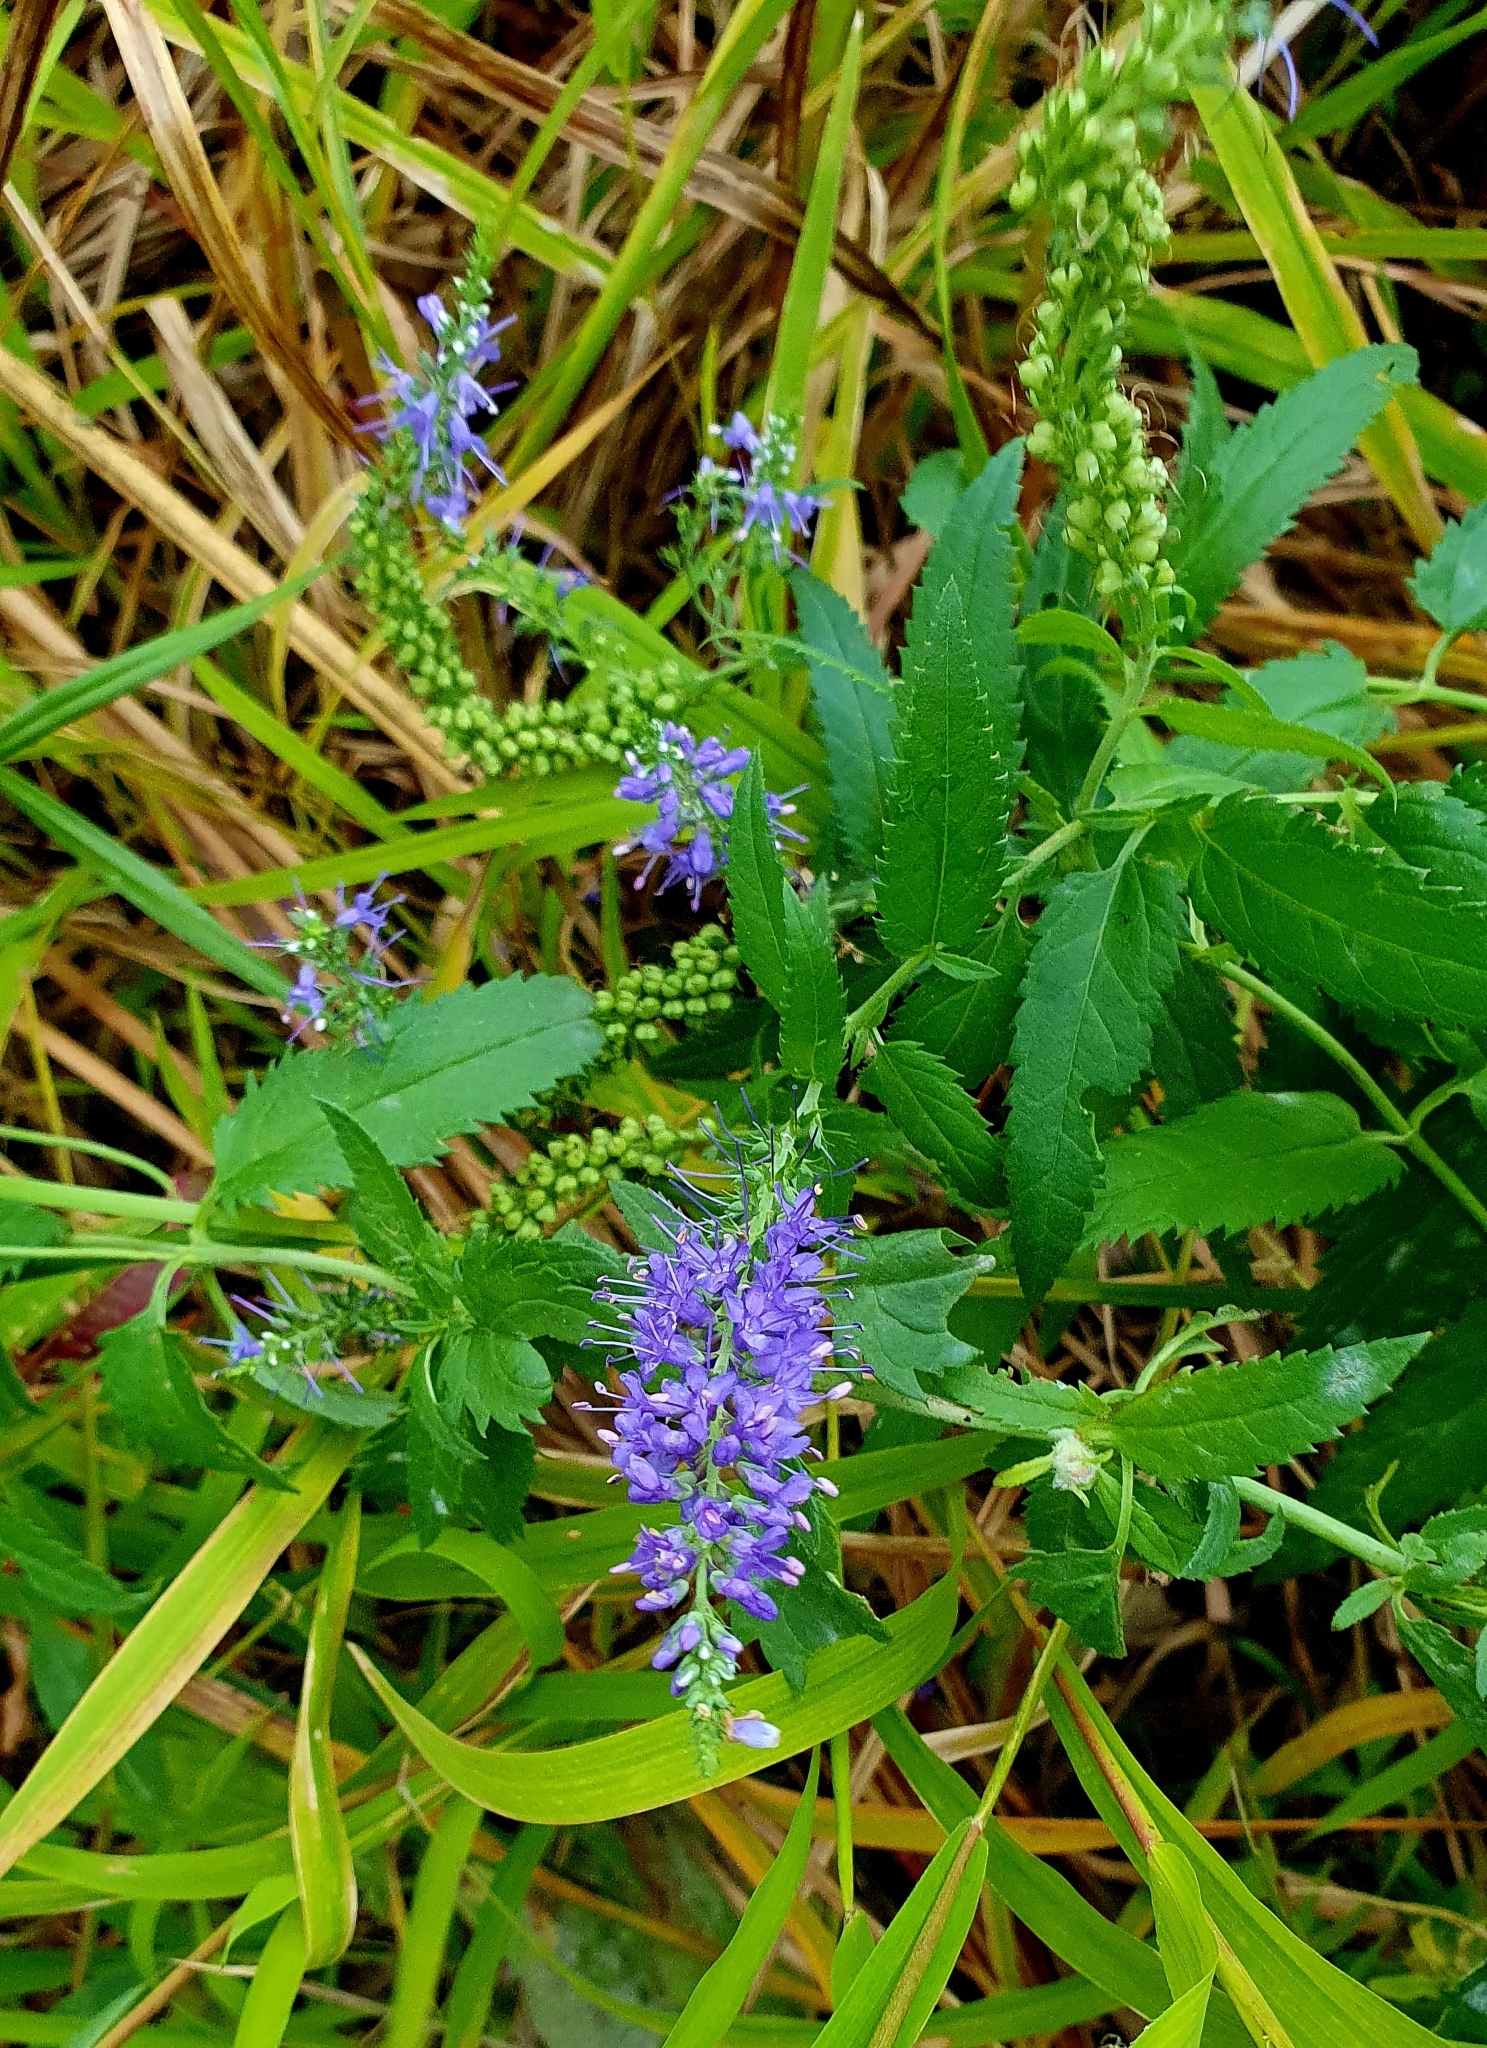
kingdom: Plantae
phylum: Tracheophyta
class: Magnoliopsida
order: Lamiales
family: Plantaginaceae
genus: Veronica
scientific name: Veronica longifolia
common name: Garden speedwell
